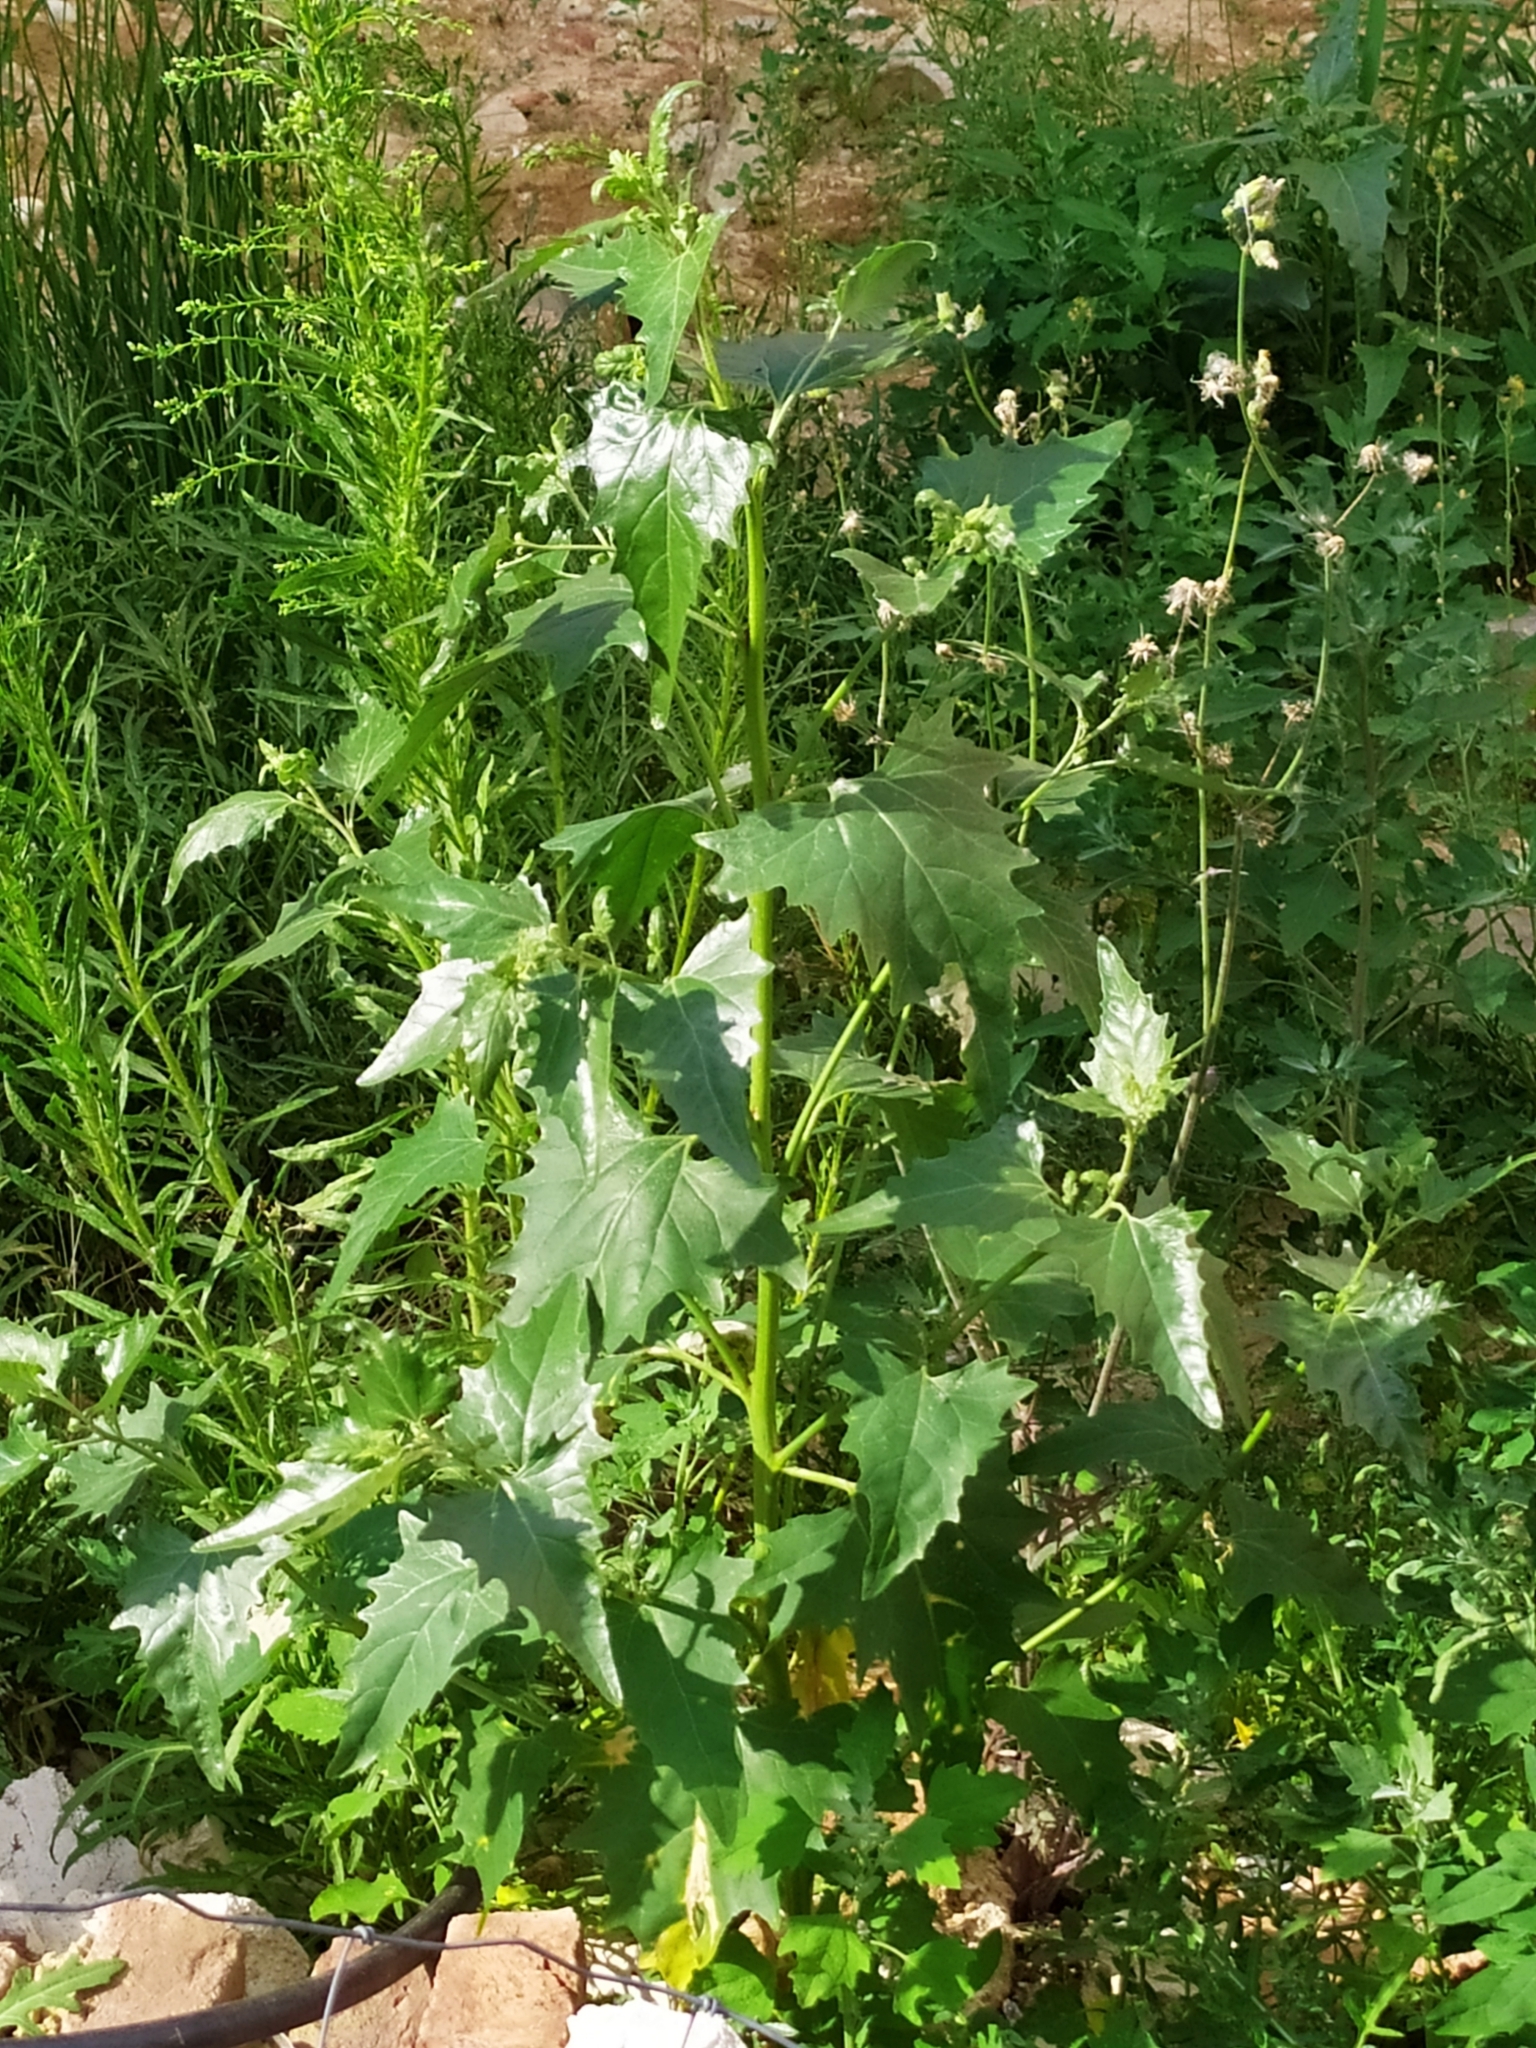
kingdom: Plantae
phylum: Tracheophyta
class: Magnoliopsida
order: Caryophyllales
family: Amaranthaceae
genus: Atriplex
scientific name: Atriplex sagittata
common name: Purple orache
